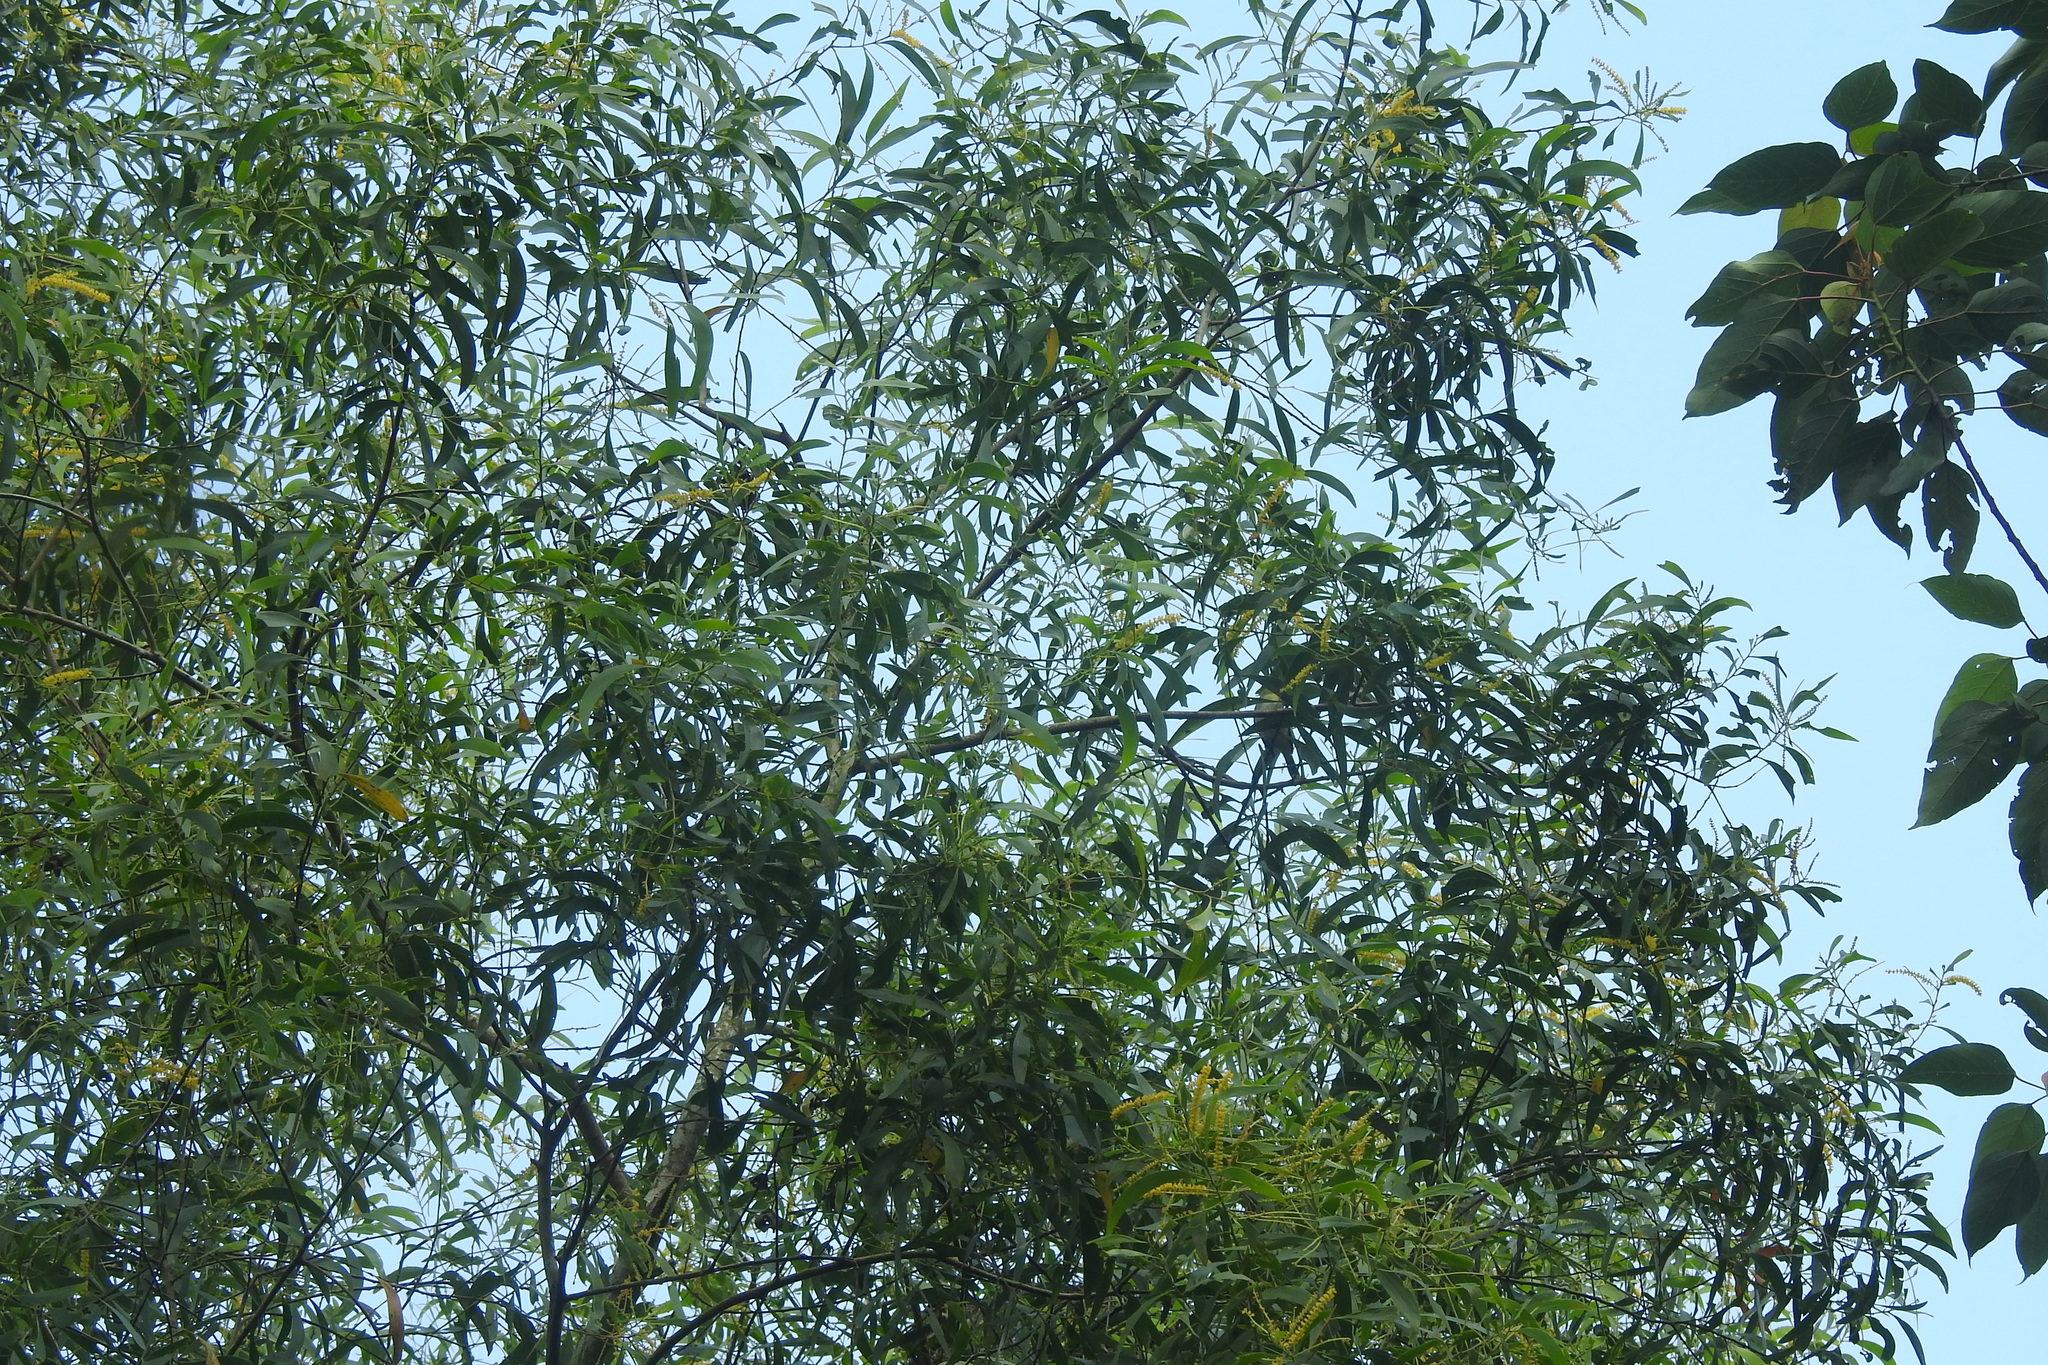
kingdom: Plantae
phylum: Tracheophyta
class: Magnoliopsida
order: Fabales
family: Fabaceae
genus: Acacia
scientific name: Acacia auriculiformis
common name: Earleaf acacia
